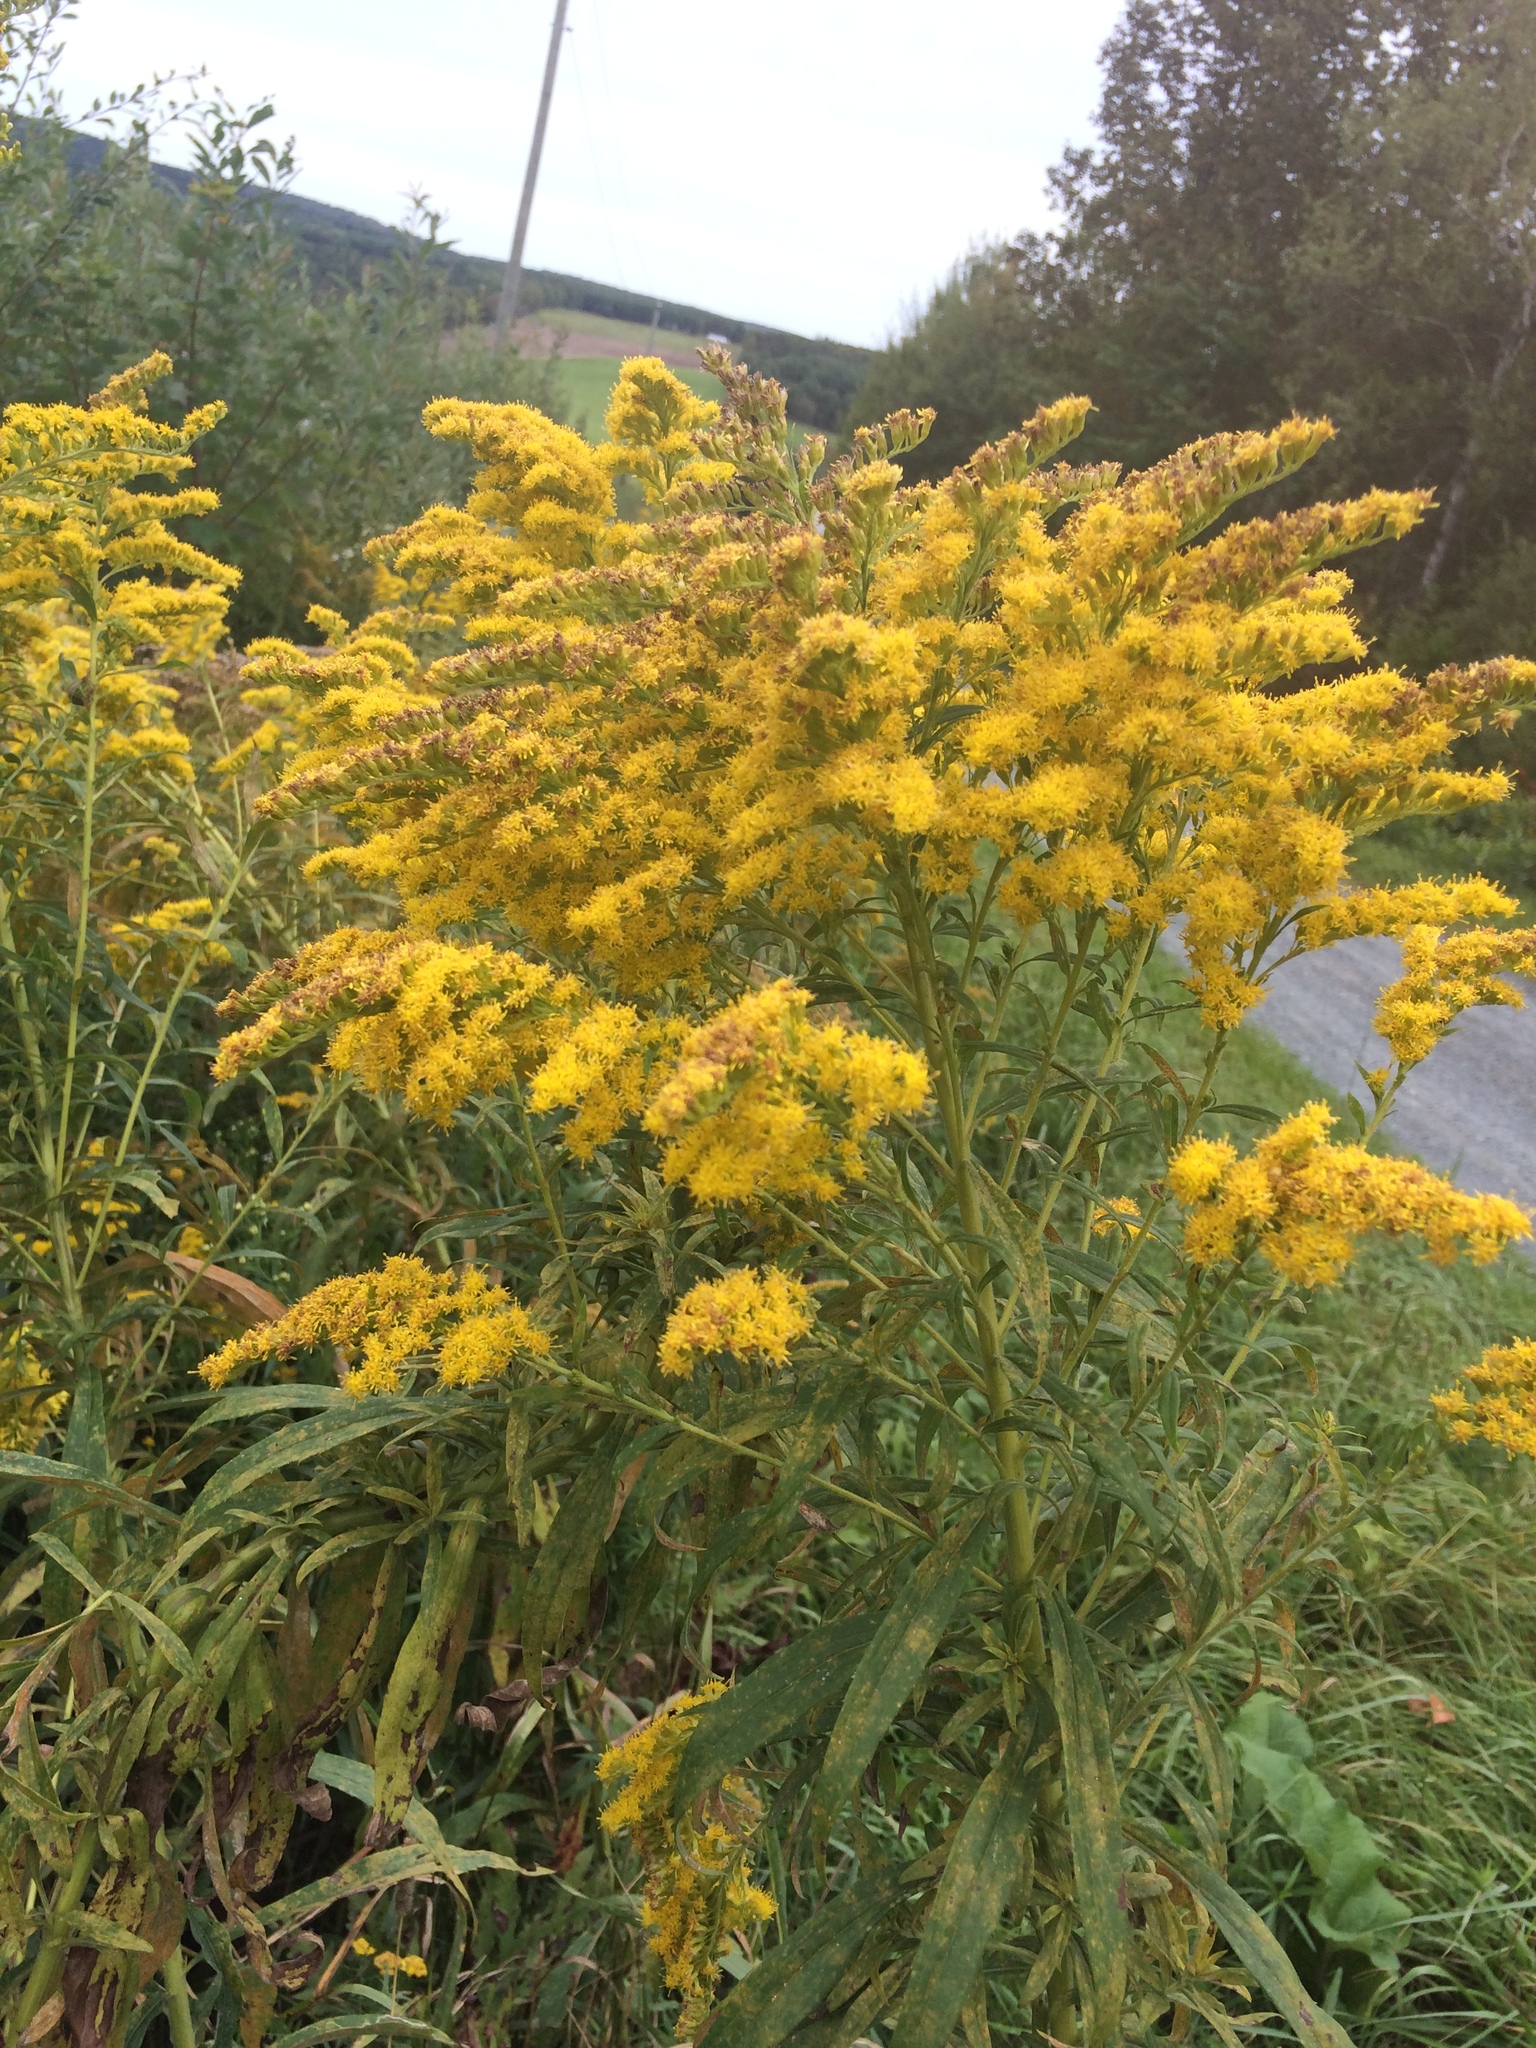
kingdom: Plantae
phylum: Tracheophyta
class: Magnoliopsida
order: Asterales
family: Asteraceae
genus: Solidago
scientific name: Solidago altissima
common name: Late goldenrod
